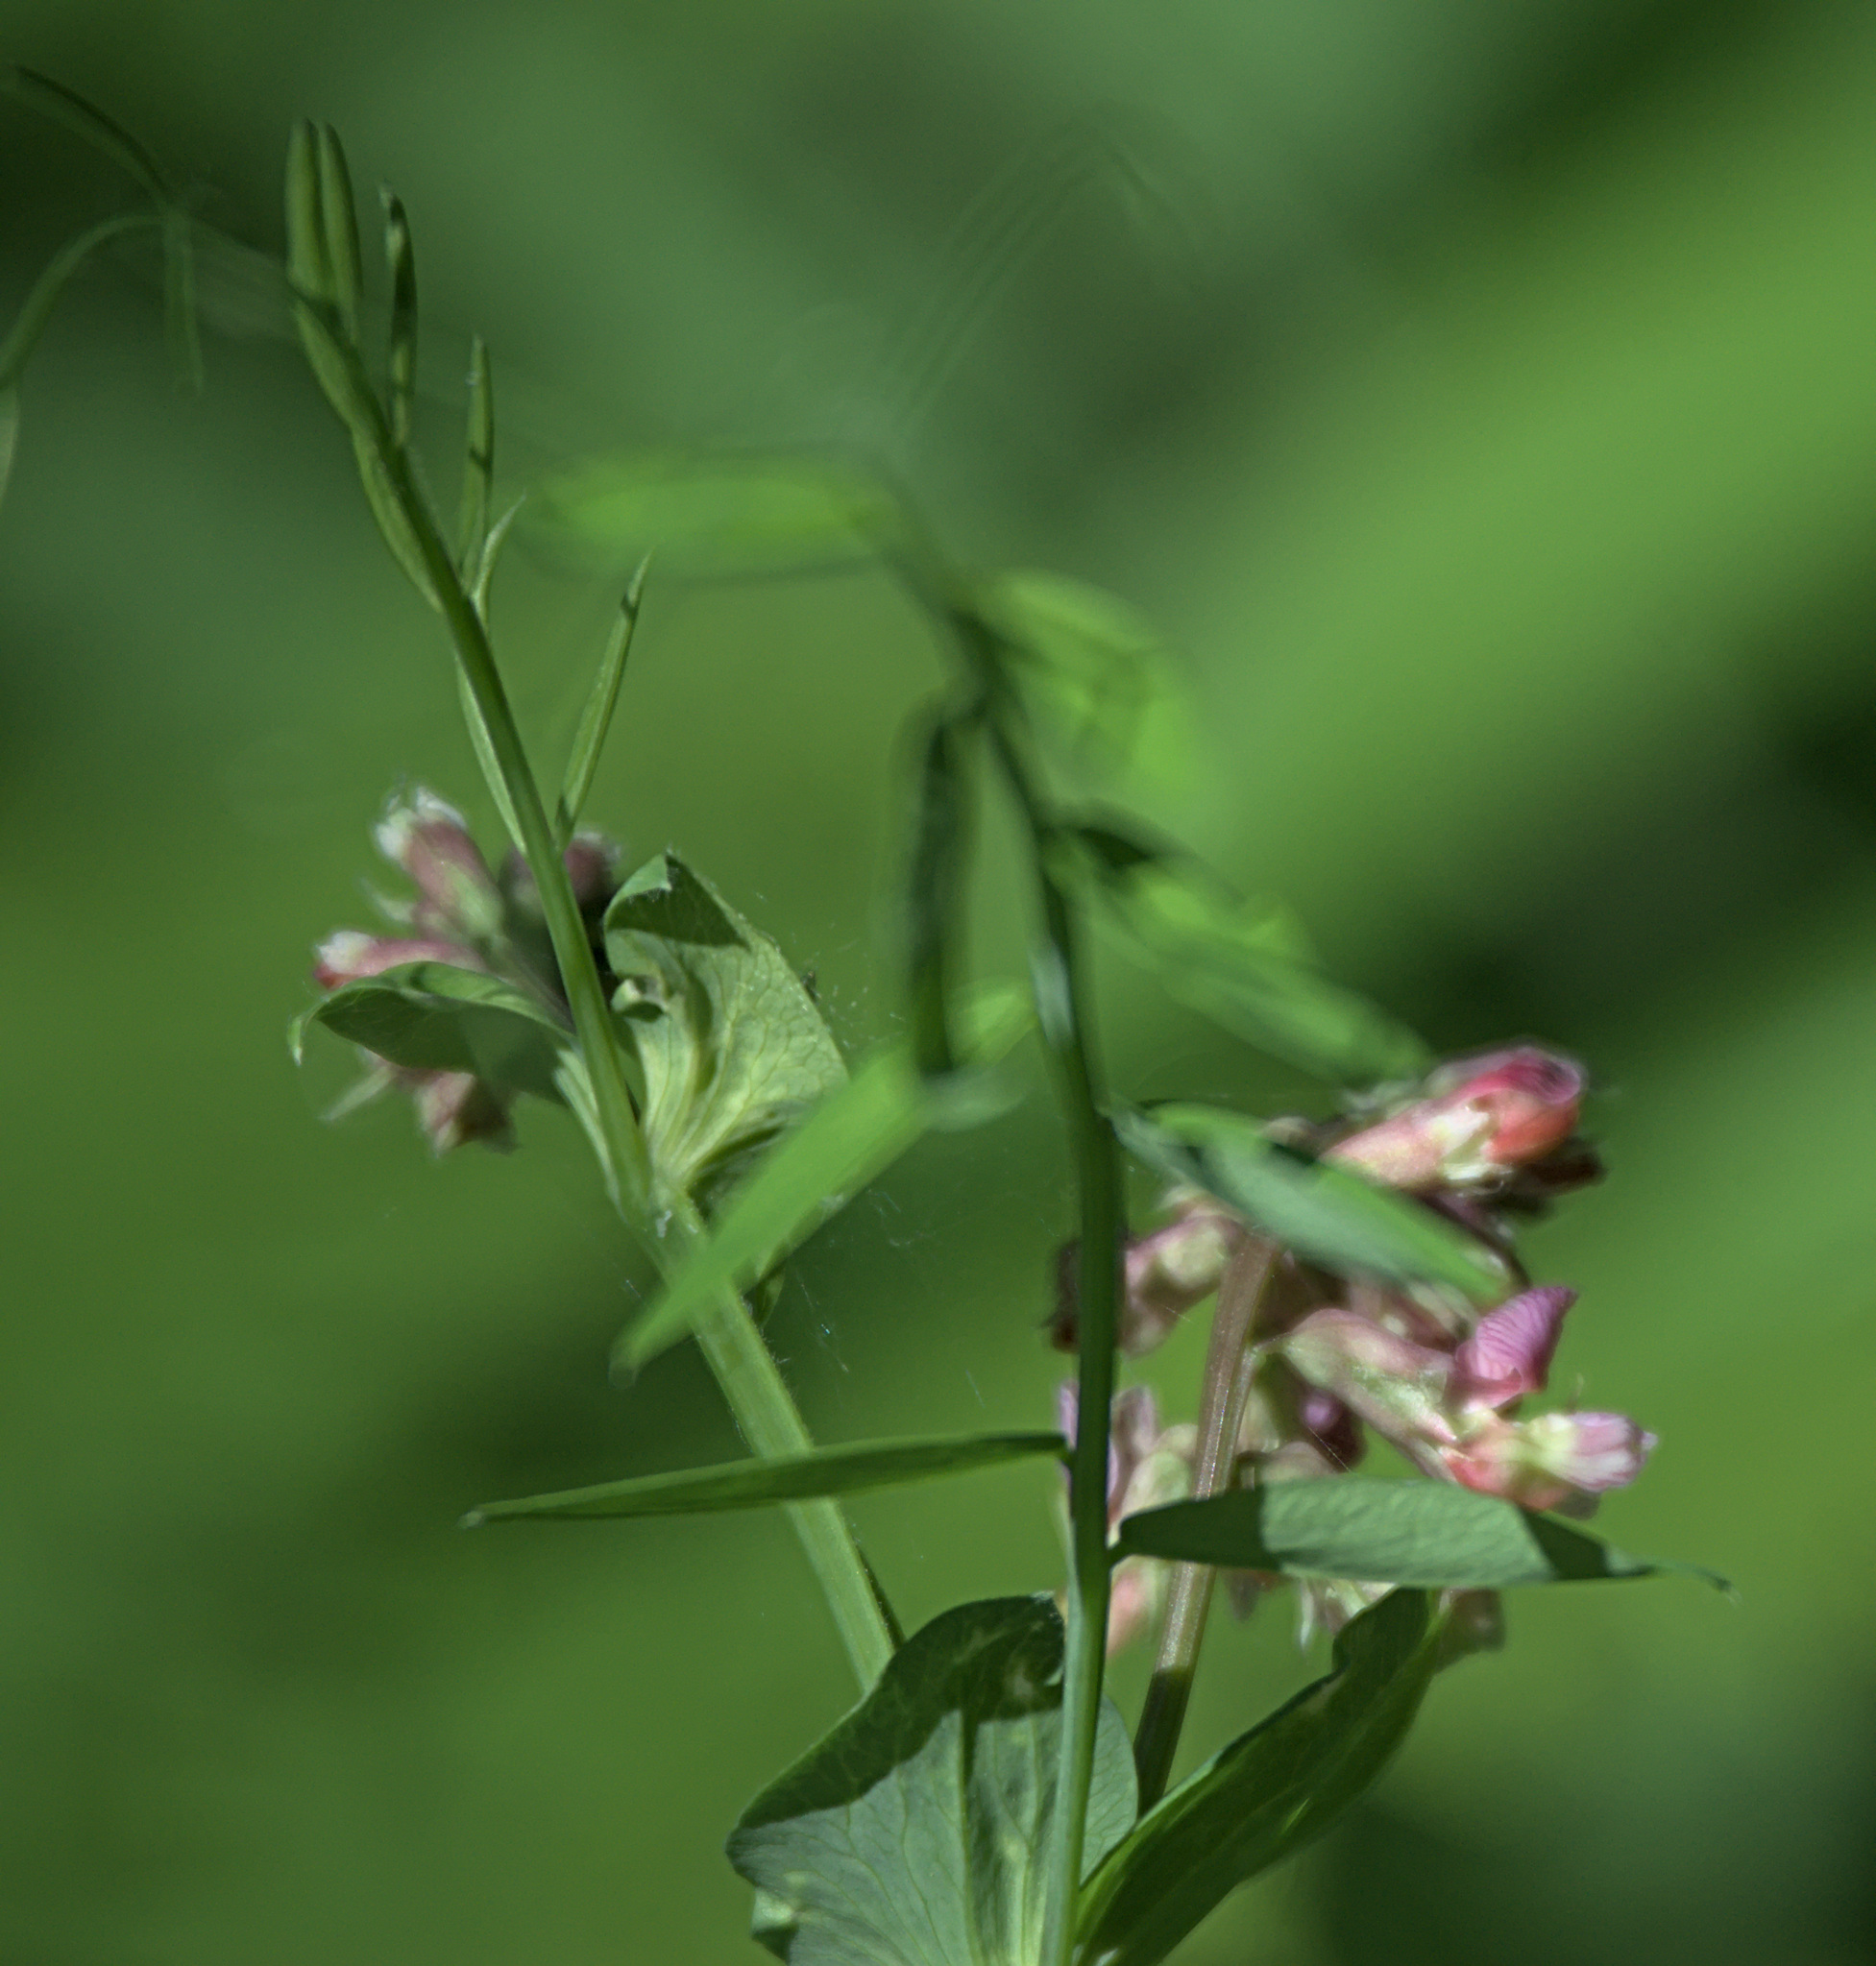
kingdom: Plantae
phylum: Tracheophyta
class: Magnoliopsida
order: Fabales
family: Fabaceae
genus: Lathyrus
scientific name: Lathyrus pisiformis
